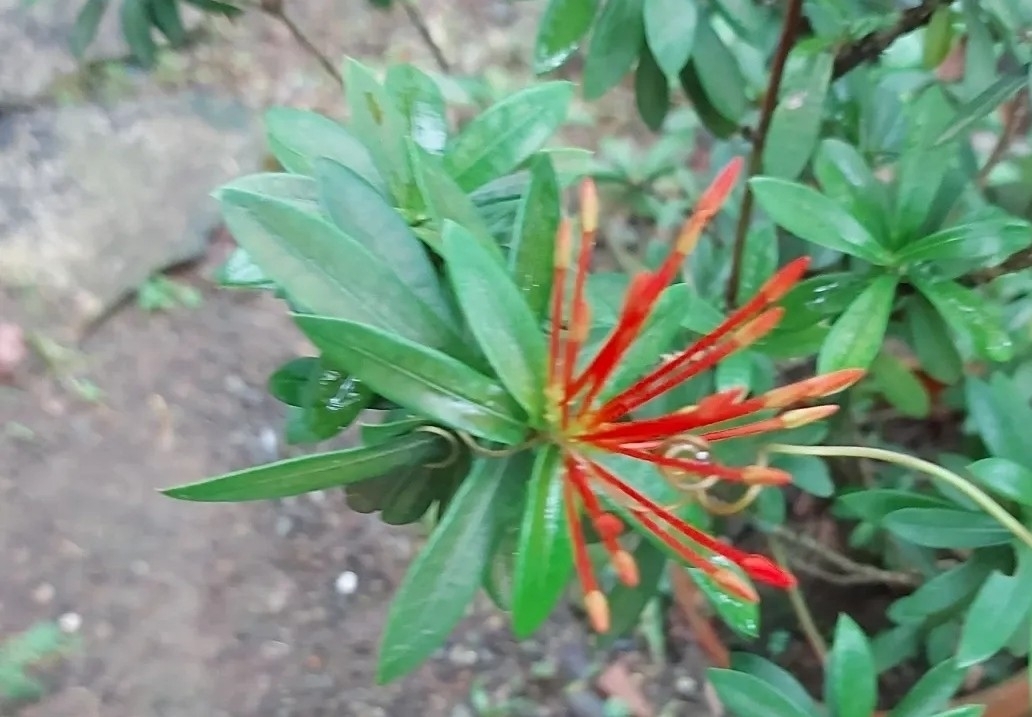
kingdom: Plantae
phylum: Tracheophyta
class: Magnoliopsida
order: Gentianales
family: Rubiaceae
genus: Ixora
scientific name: Ixora coccinea
